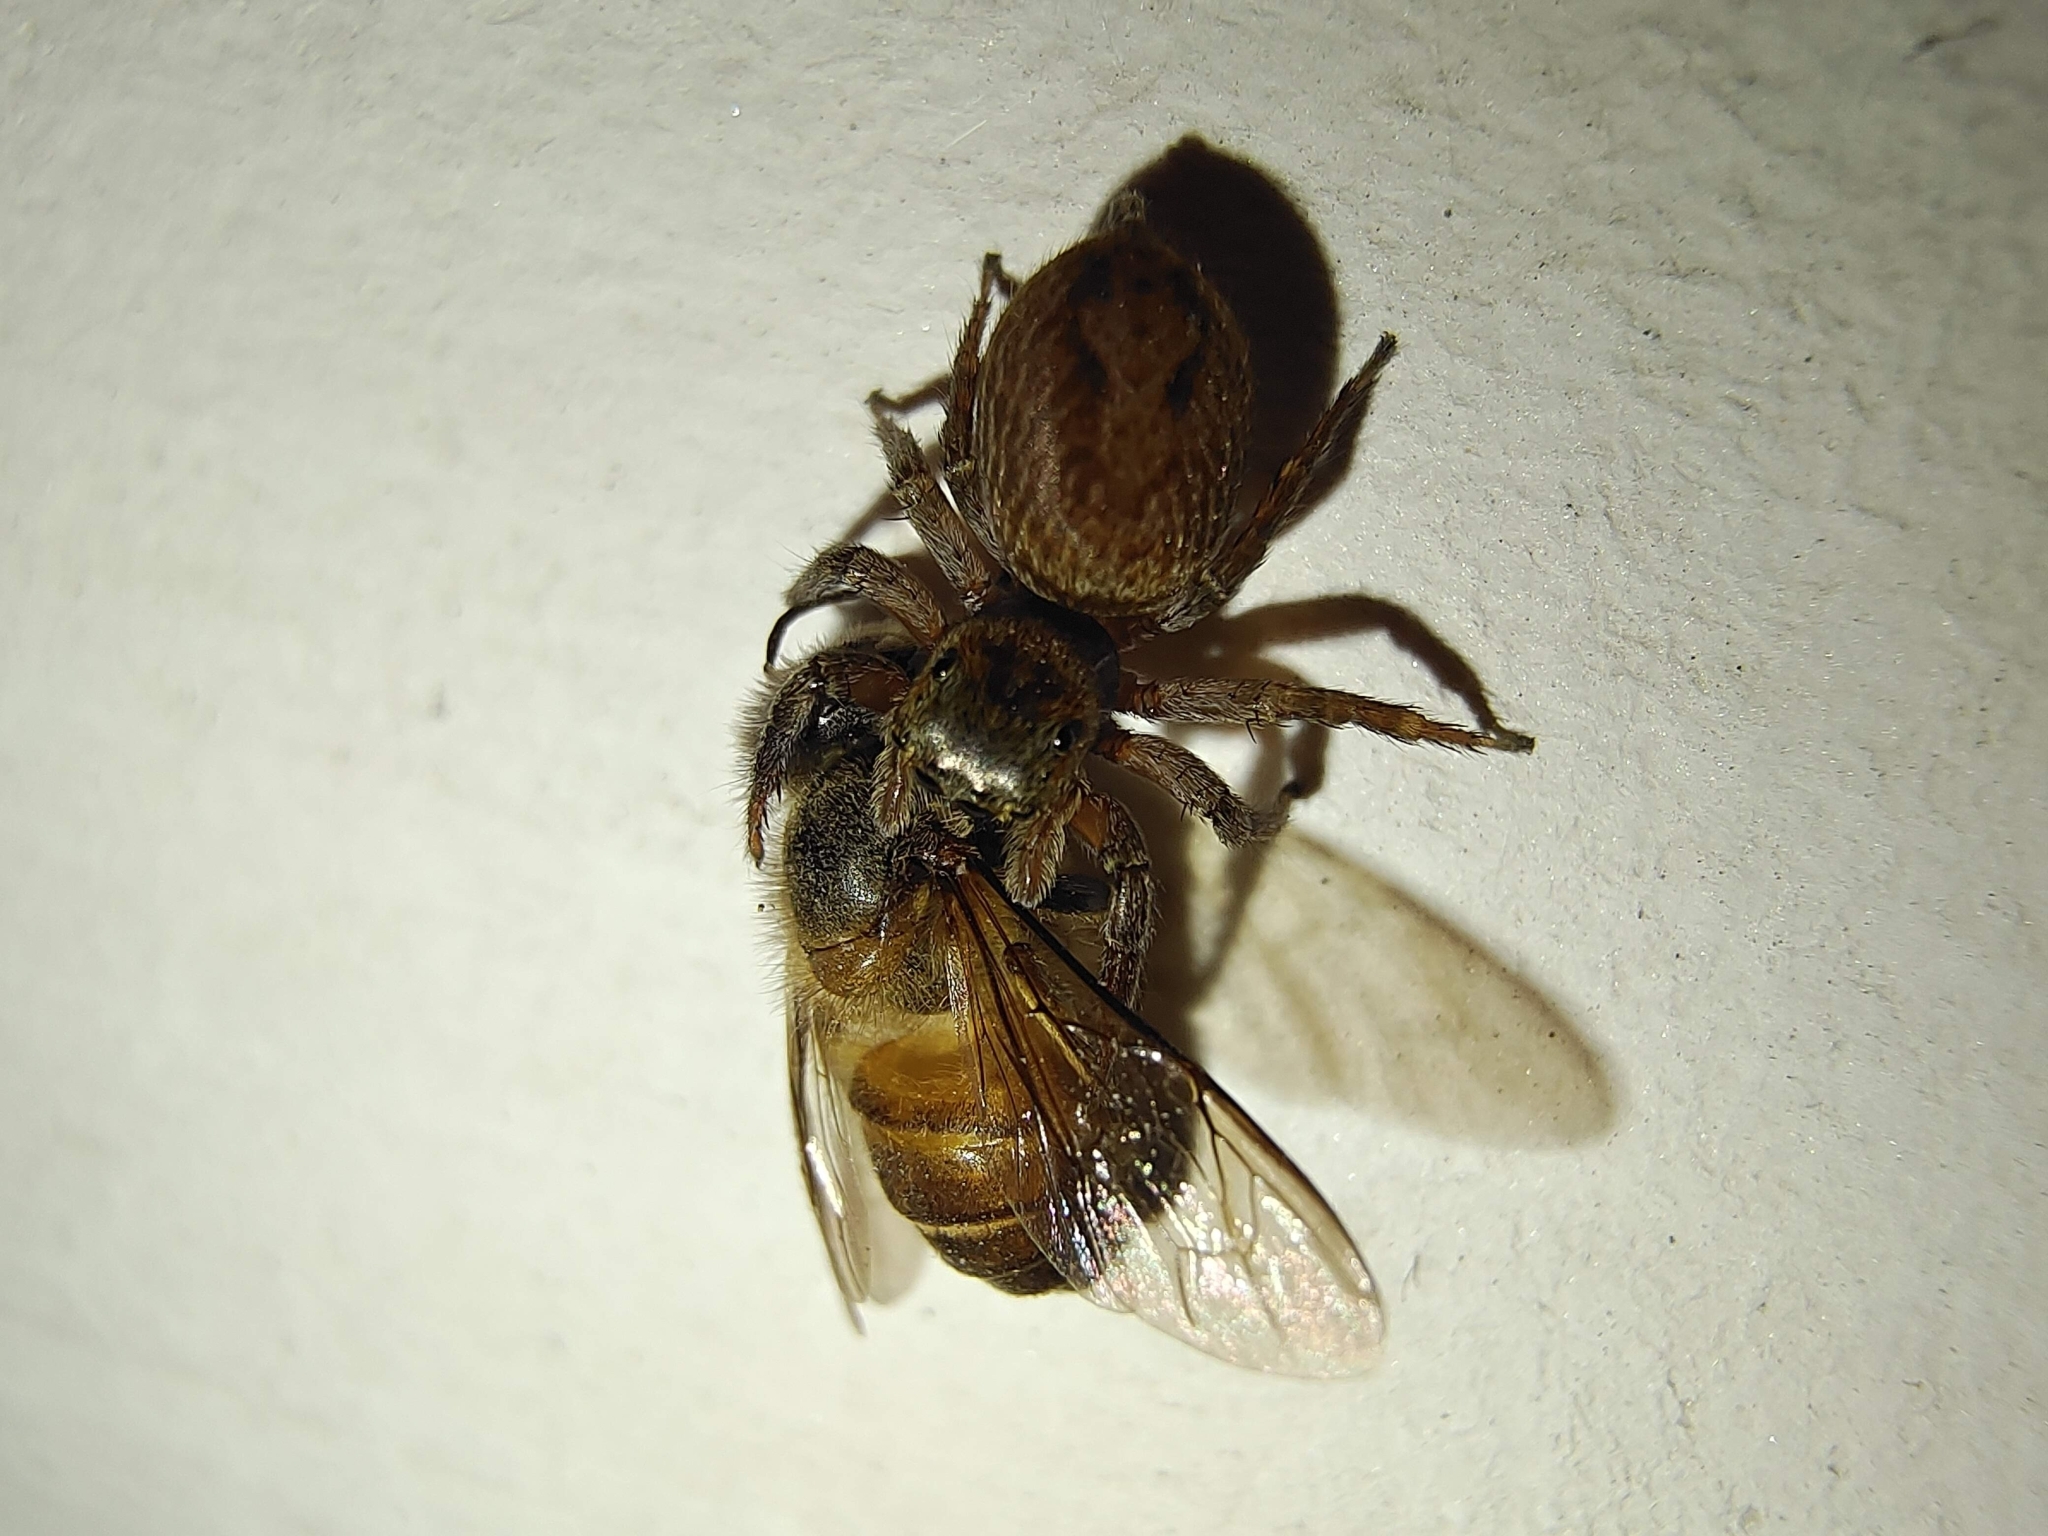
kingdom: Animalia
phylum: Arthropoda
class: Arachnida
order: Araneae
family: Salticidae
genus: Hasarius
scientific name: Hasarius adansoni
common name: Jumping spider
